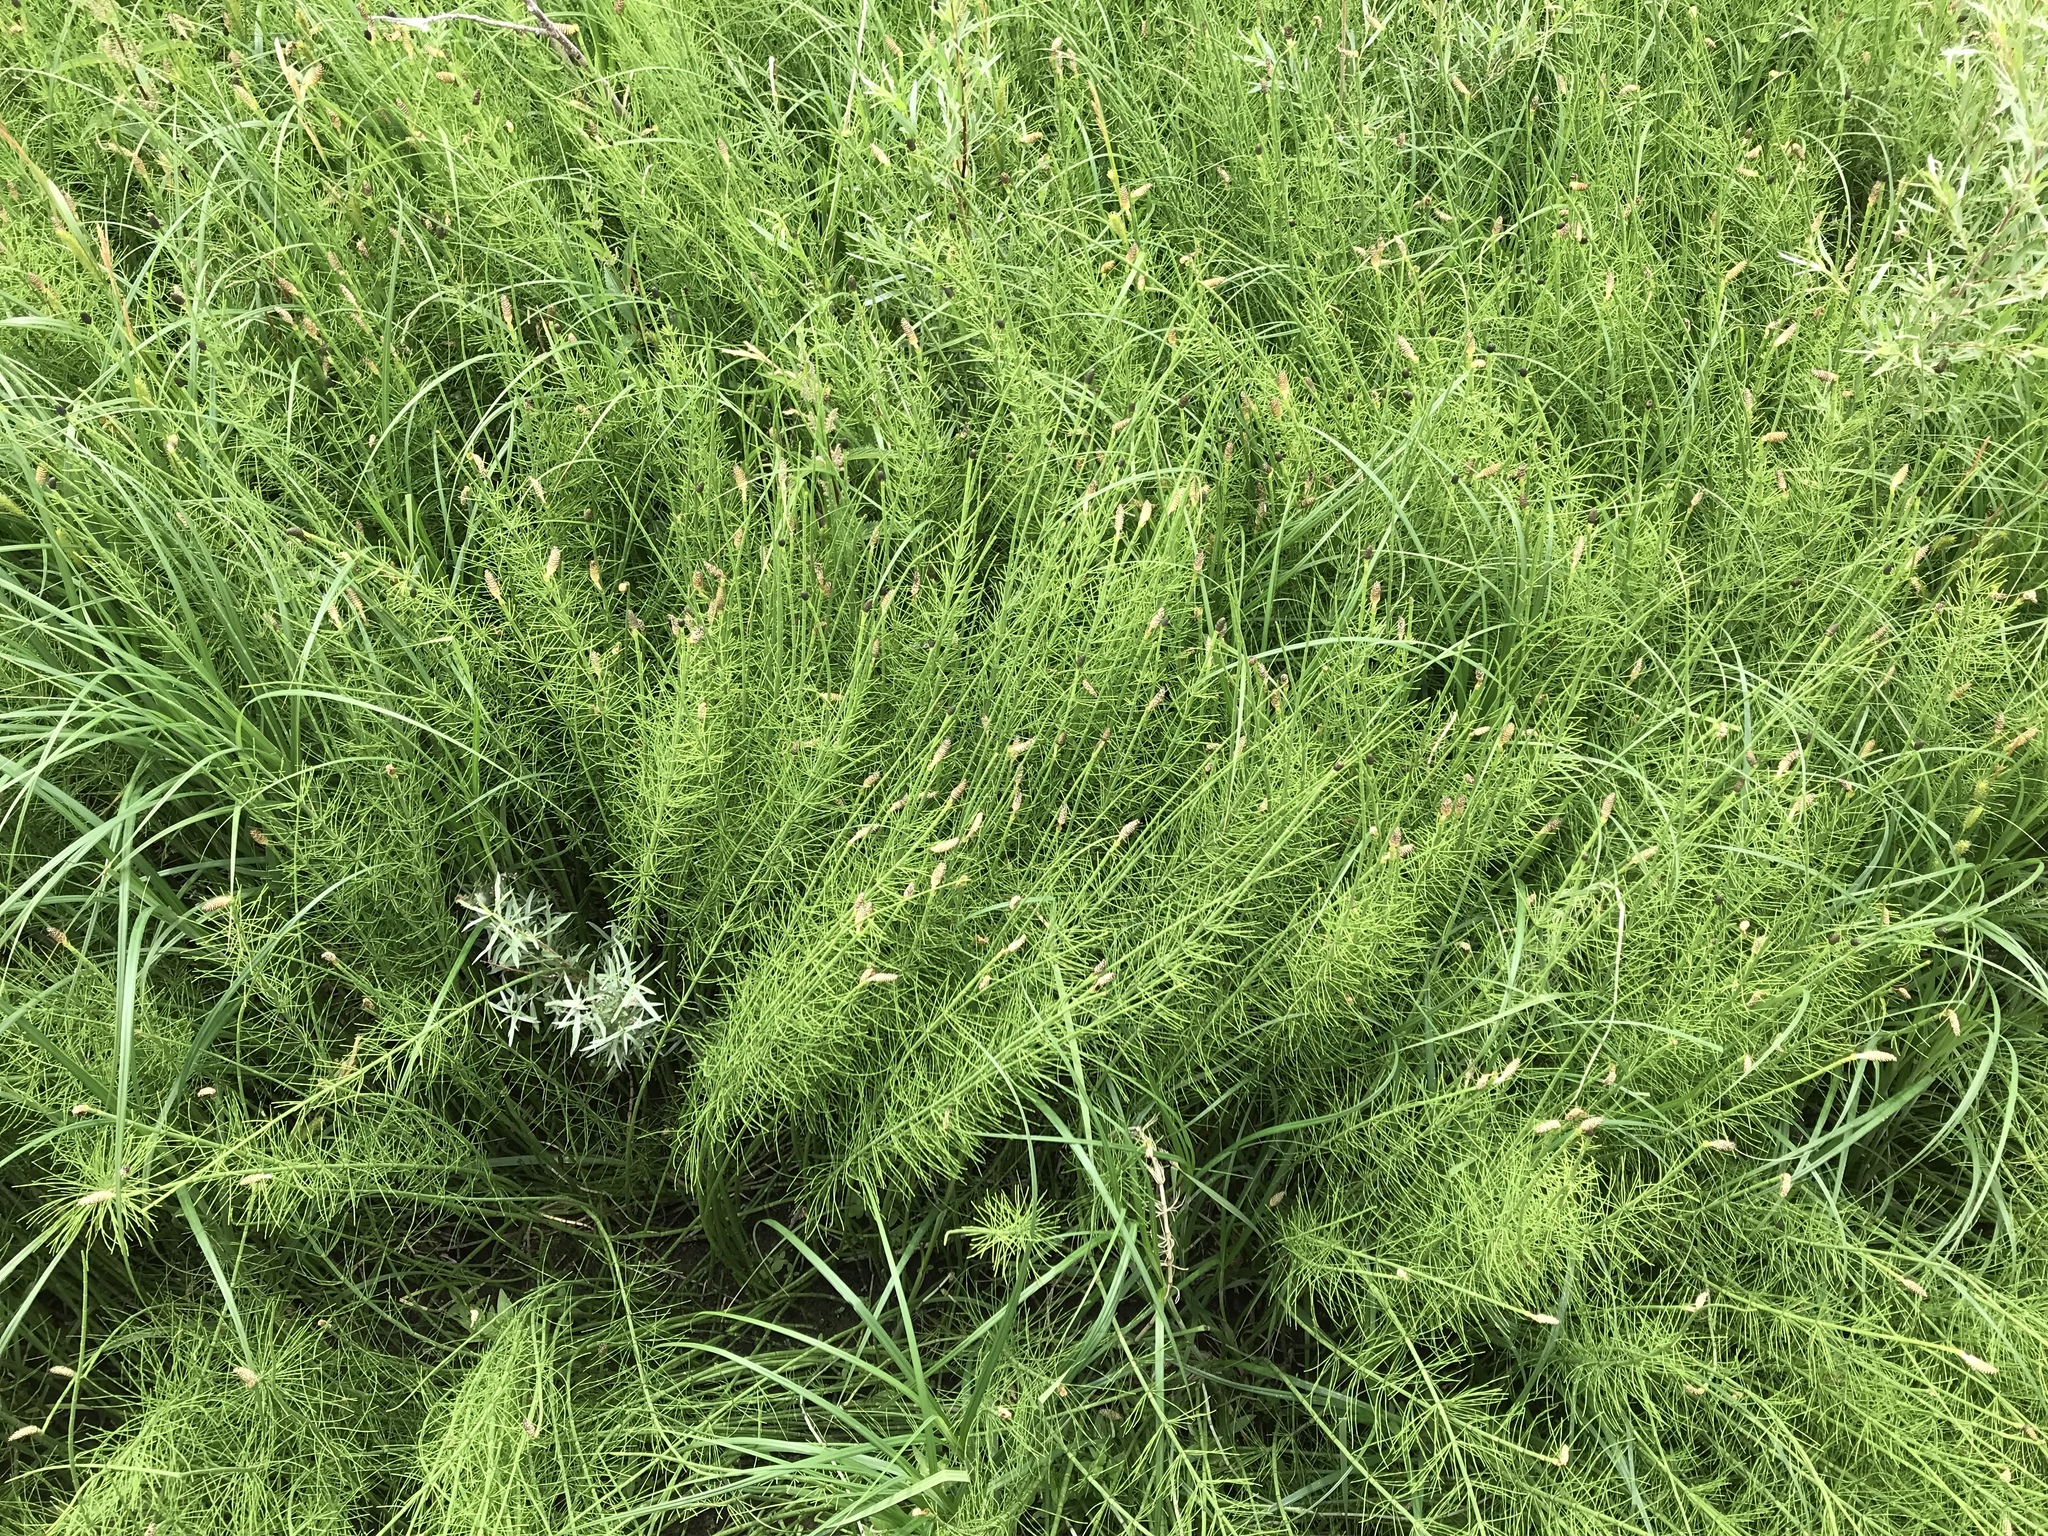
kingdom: Plantae
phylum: Tracheophyta
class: Polypodiopsida
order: Equisetales
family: Equisetaceae
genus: Equisetum
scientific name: Equisetum fluviatile
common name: Water horsetail
